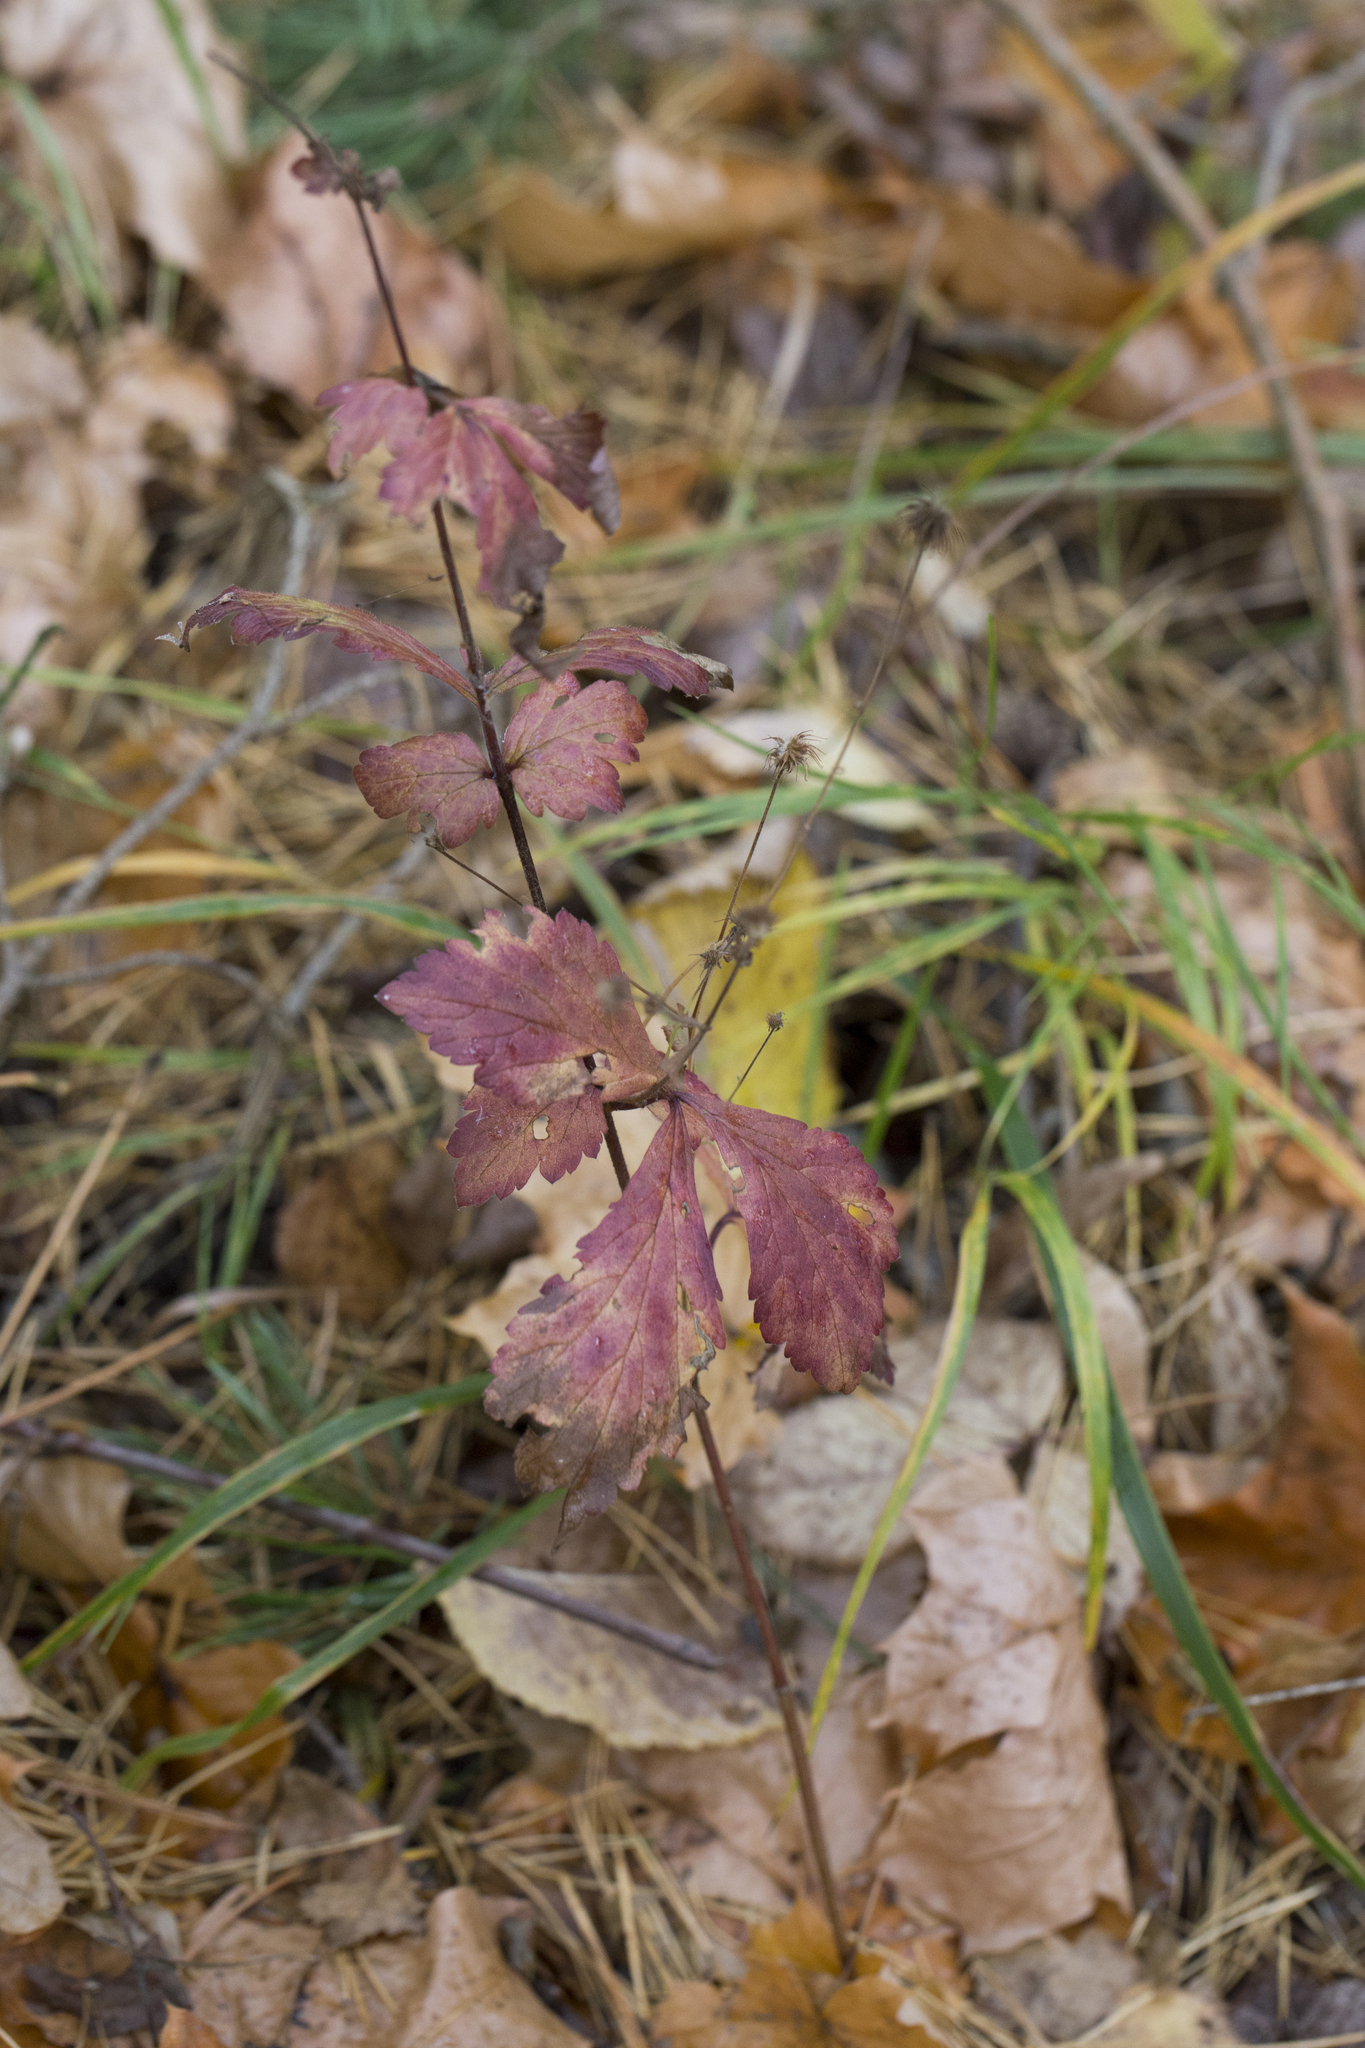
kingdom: Plantae
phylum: Tracheophyta
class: Magnoliopsida
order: Rosales
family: Rosaceae
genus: Geum
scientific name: Geum urbanum
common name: Wood avens
